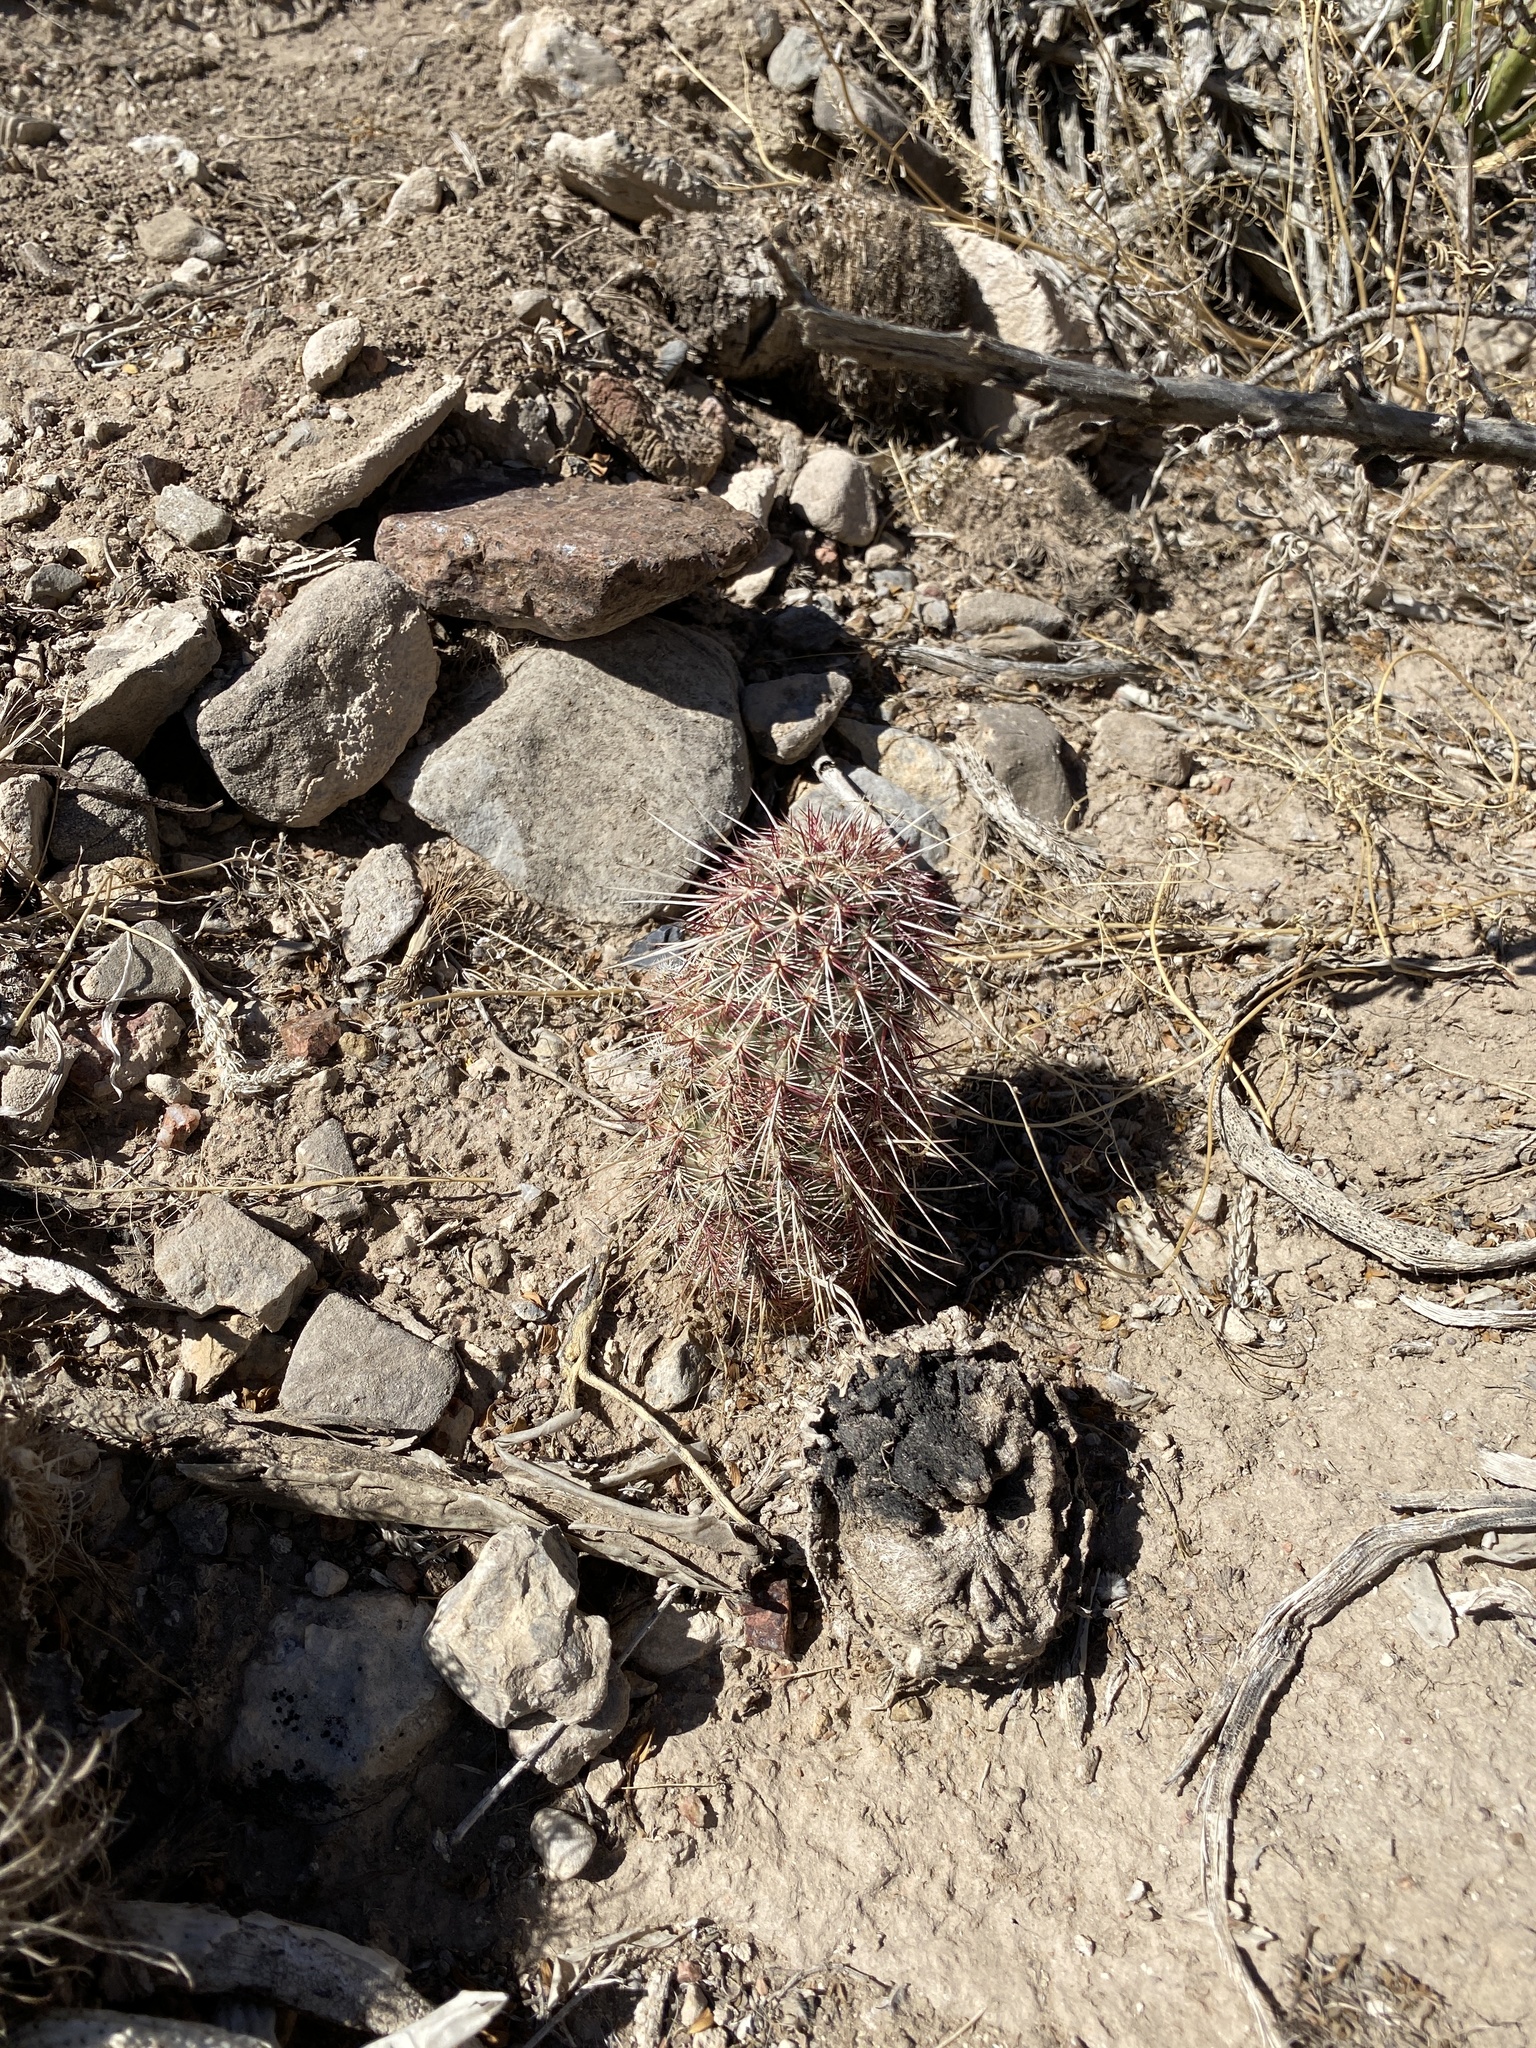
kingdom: Plantae
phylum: Tracheophyta
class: Magnoliopsida
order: Caryophyllales
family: Cactaceae
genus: Echinocereus
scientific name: Echinocereus viridiflorus
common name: Nylon hedgehog cactus
